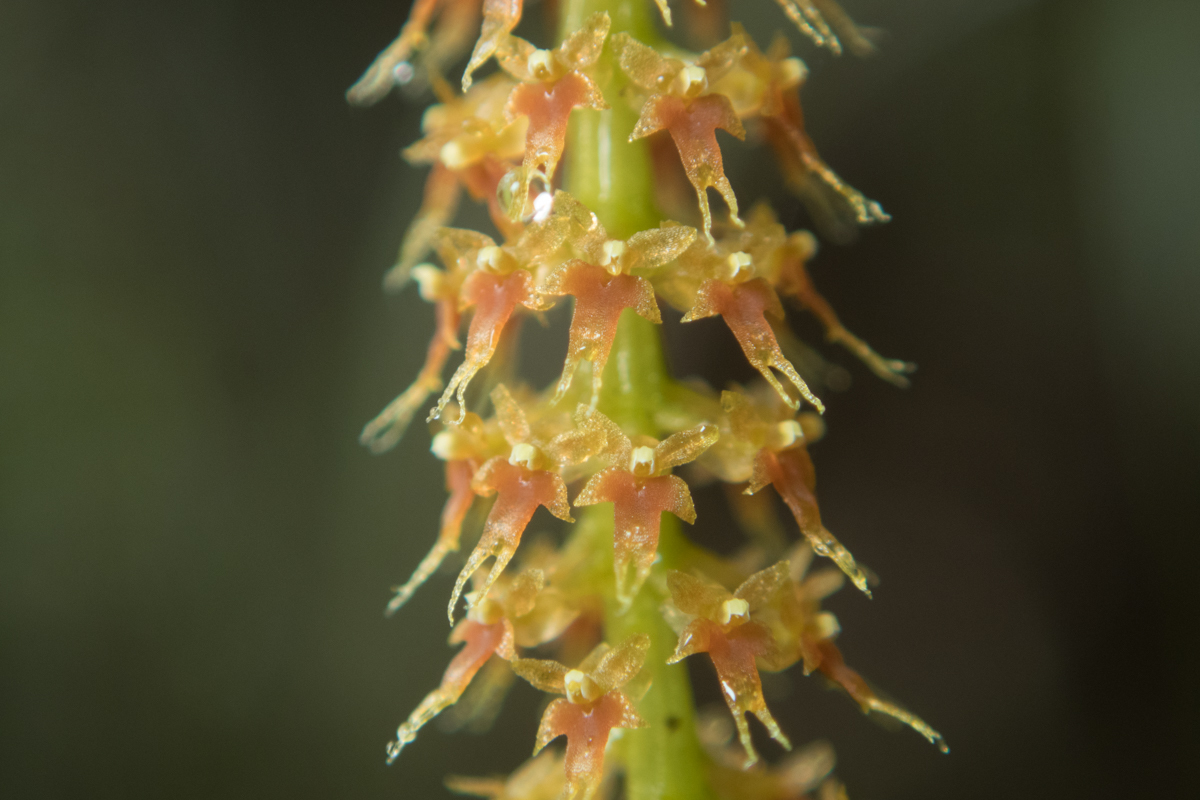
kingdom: Plantae
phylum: Tracheophyta
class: Liliopsida
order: Asparagales
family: Orchidaceae
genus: Oberonia
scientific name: Oberonia falcata
